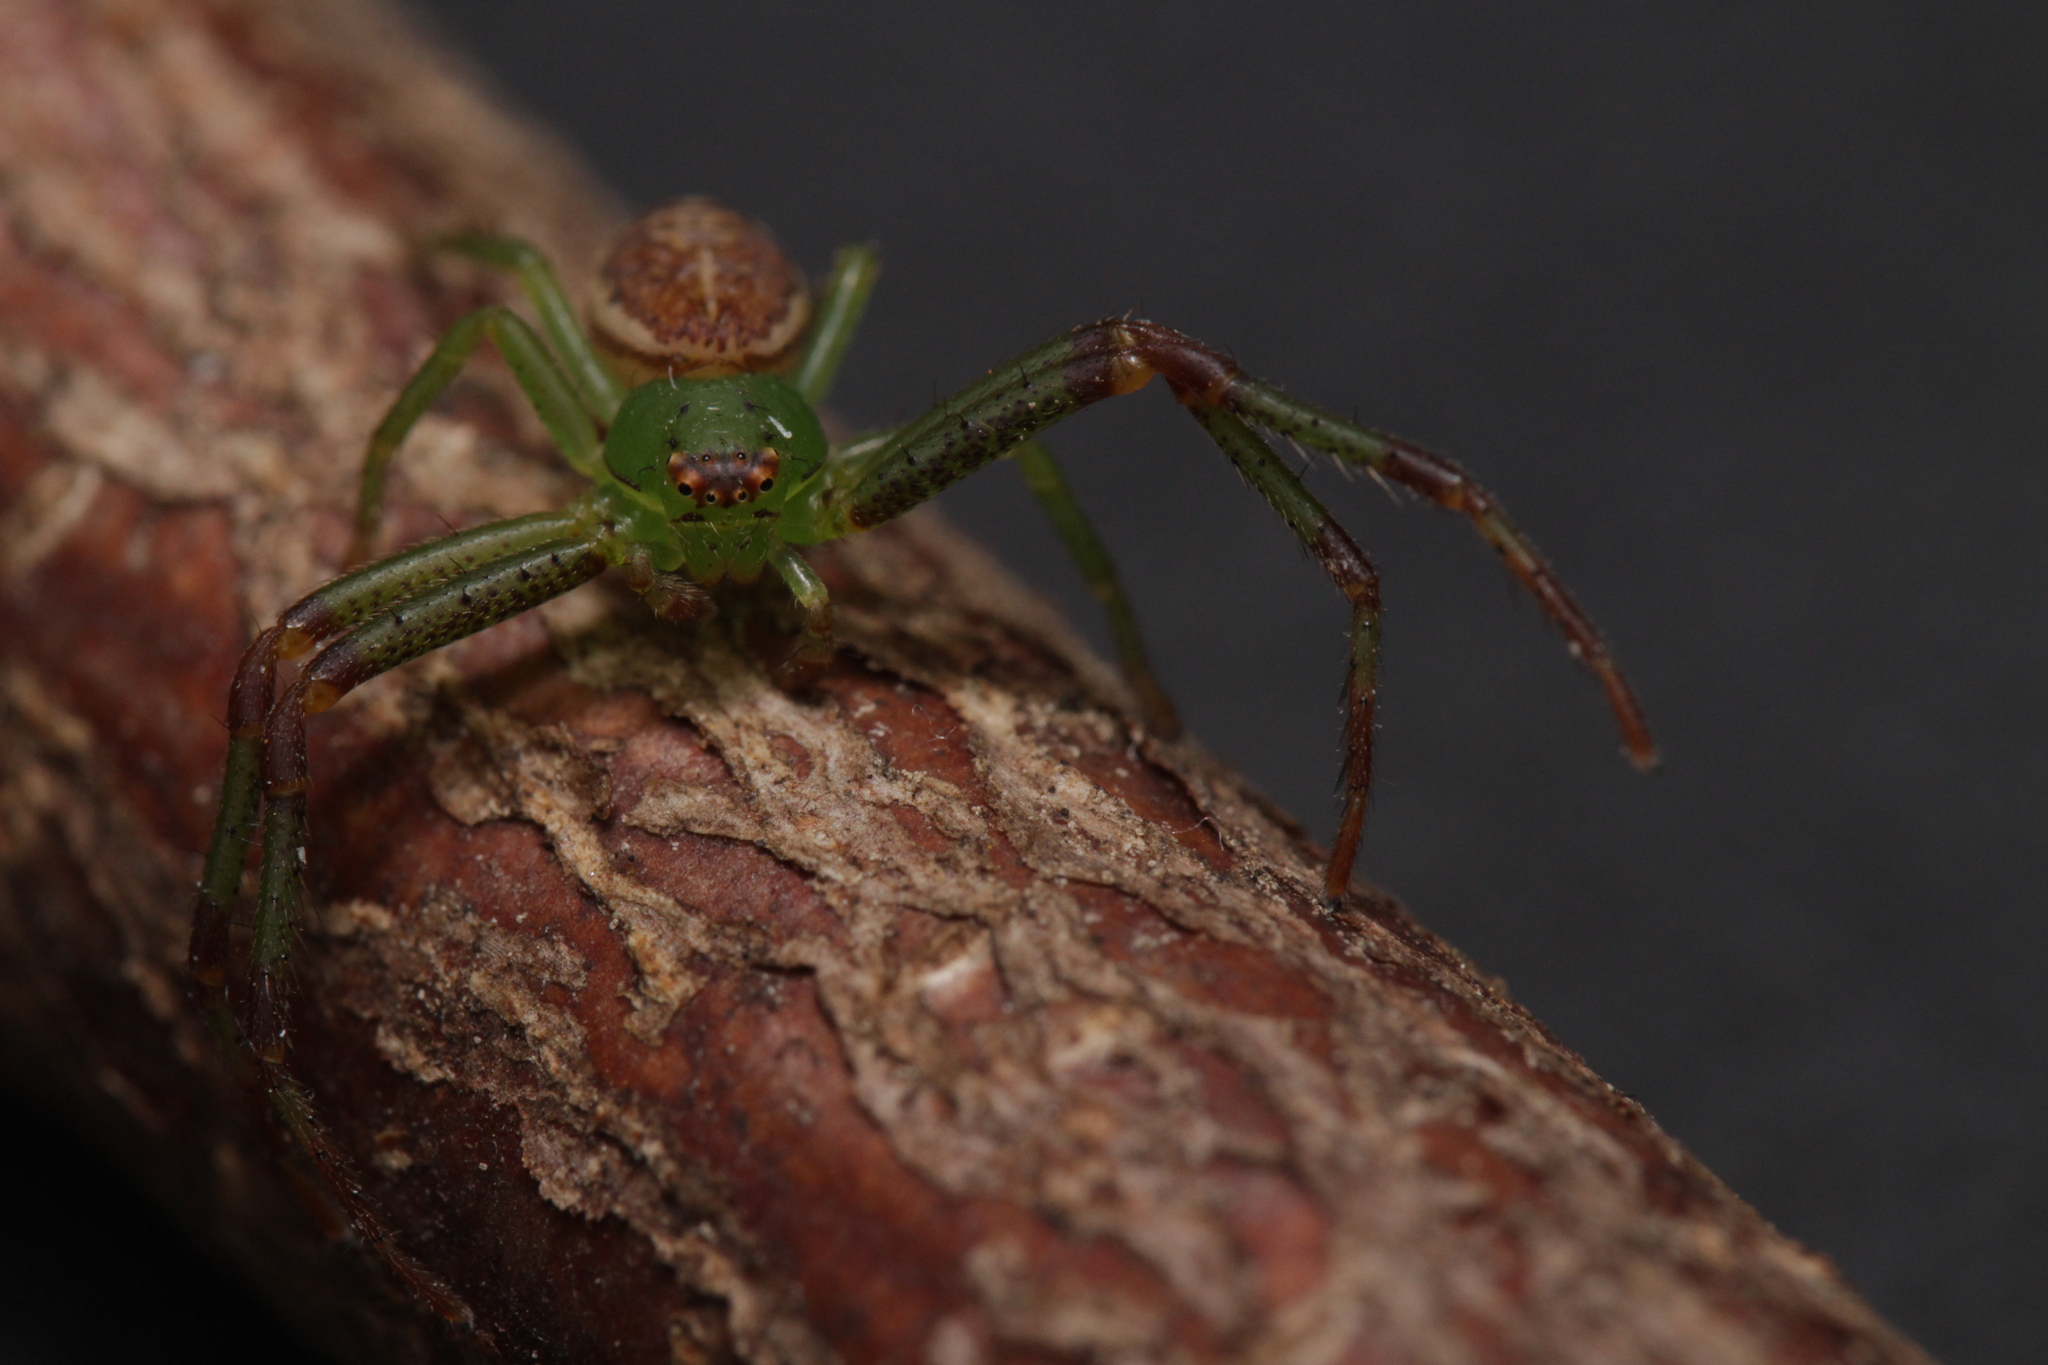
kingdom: Animalia
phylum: Arthropoda
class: Arachnida
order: Araneae
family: Thomisidae
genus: Diaea
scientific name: Diaea dorsata
